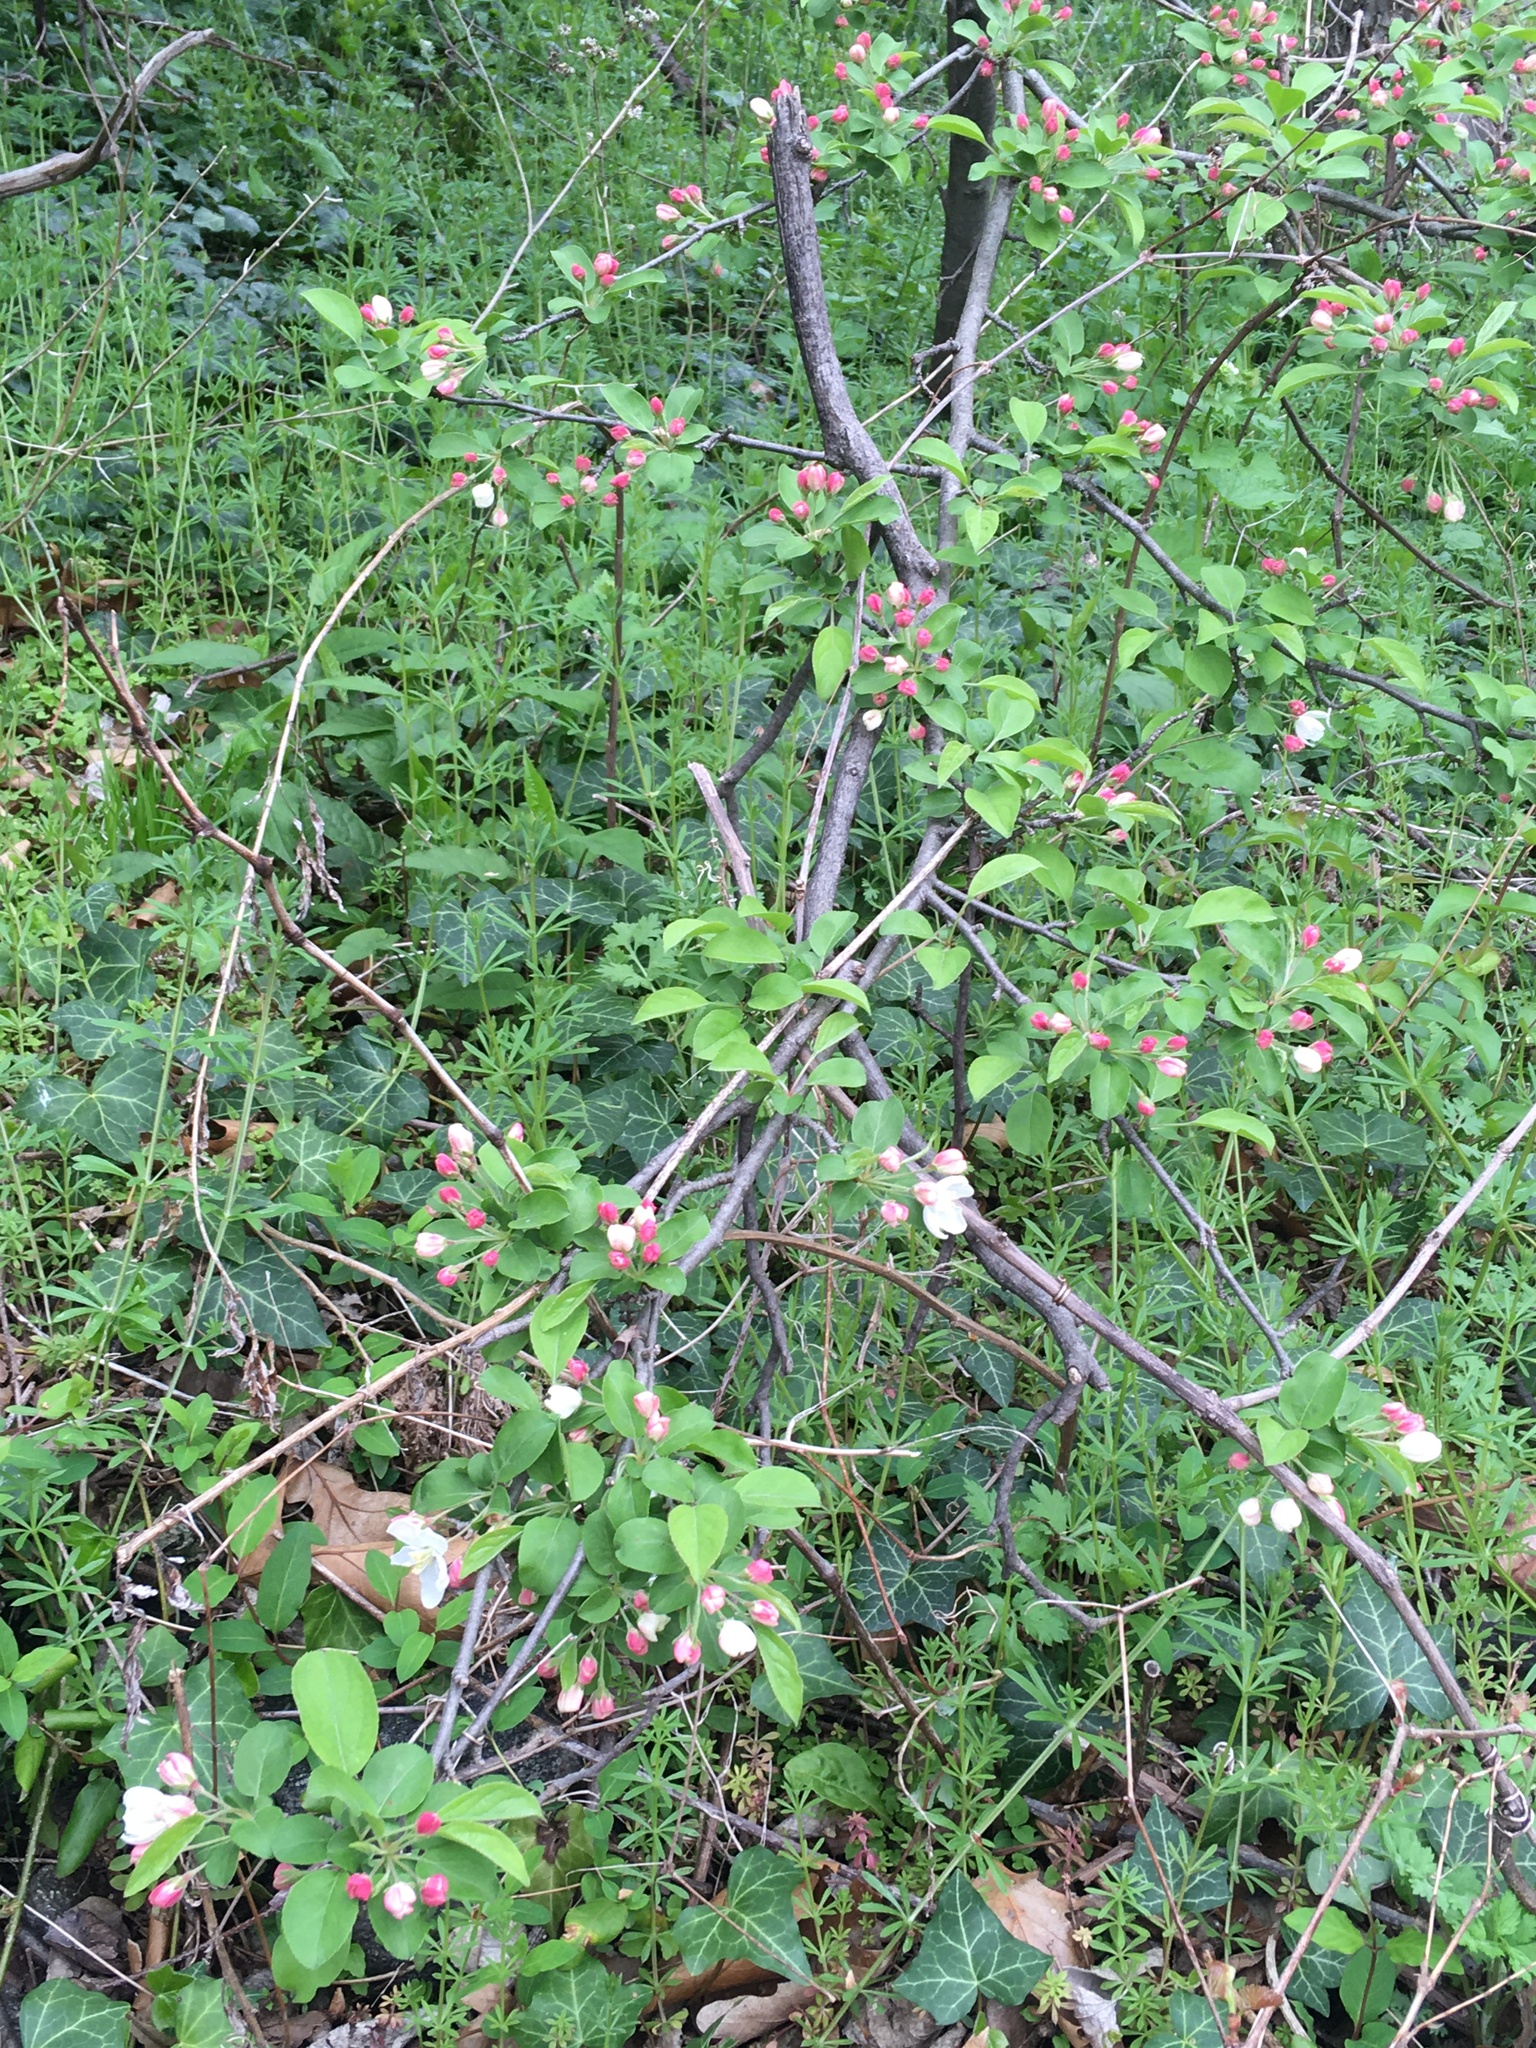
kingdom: Plantae
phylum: Tracheophyta
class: Magnoliopsida
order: Rosales
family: Rosaceae
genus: Malus
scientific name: Malus hupehensis
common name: Chinese crab apple
